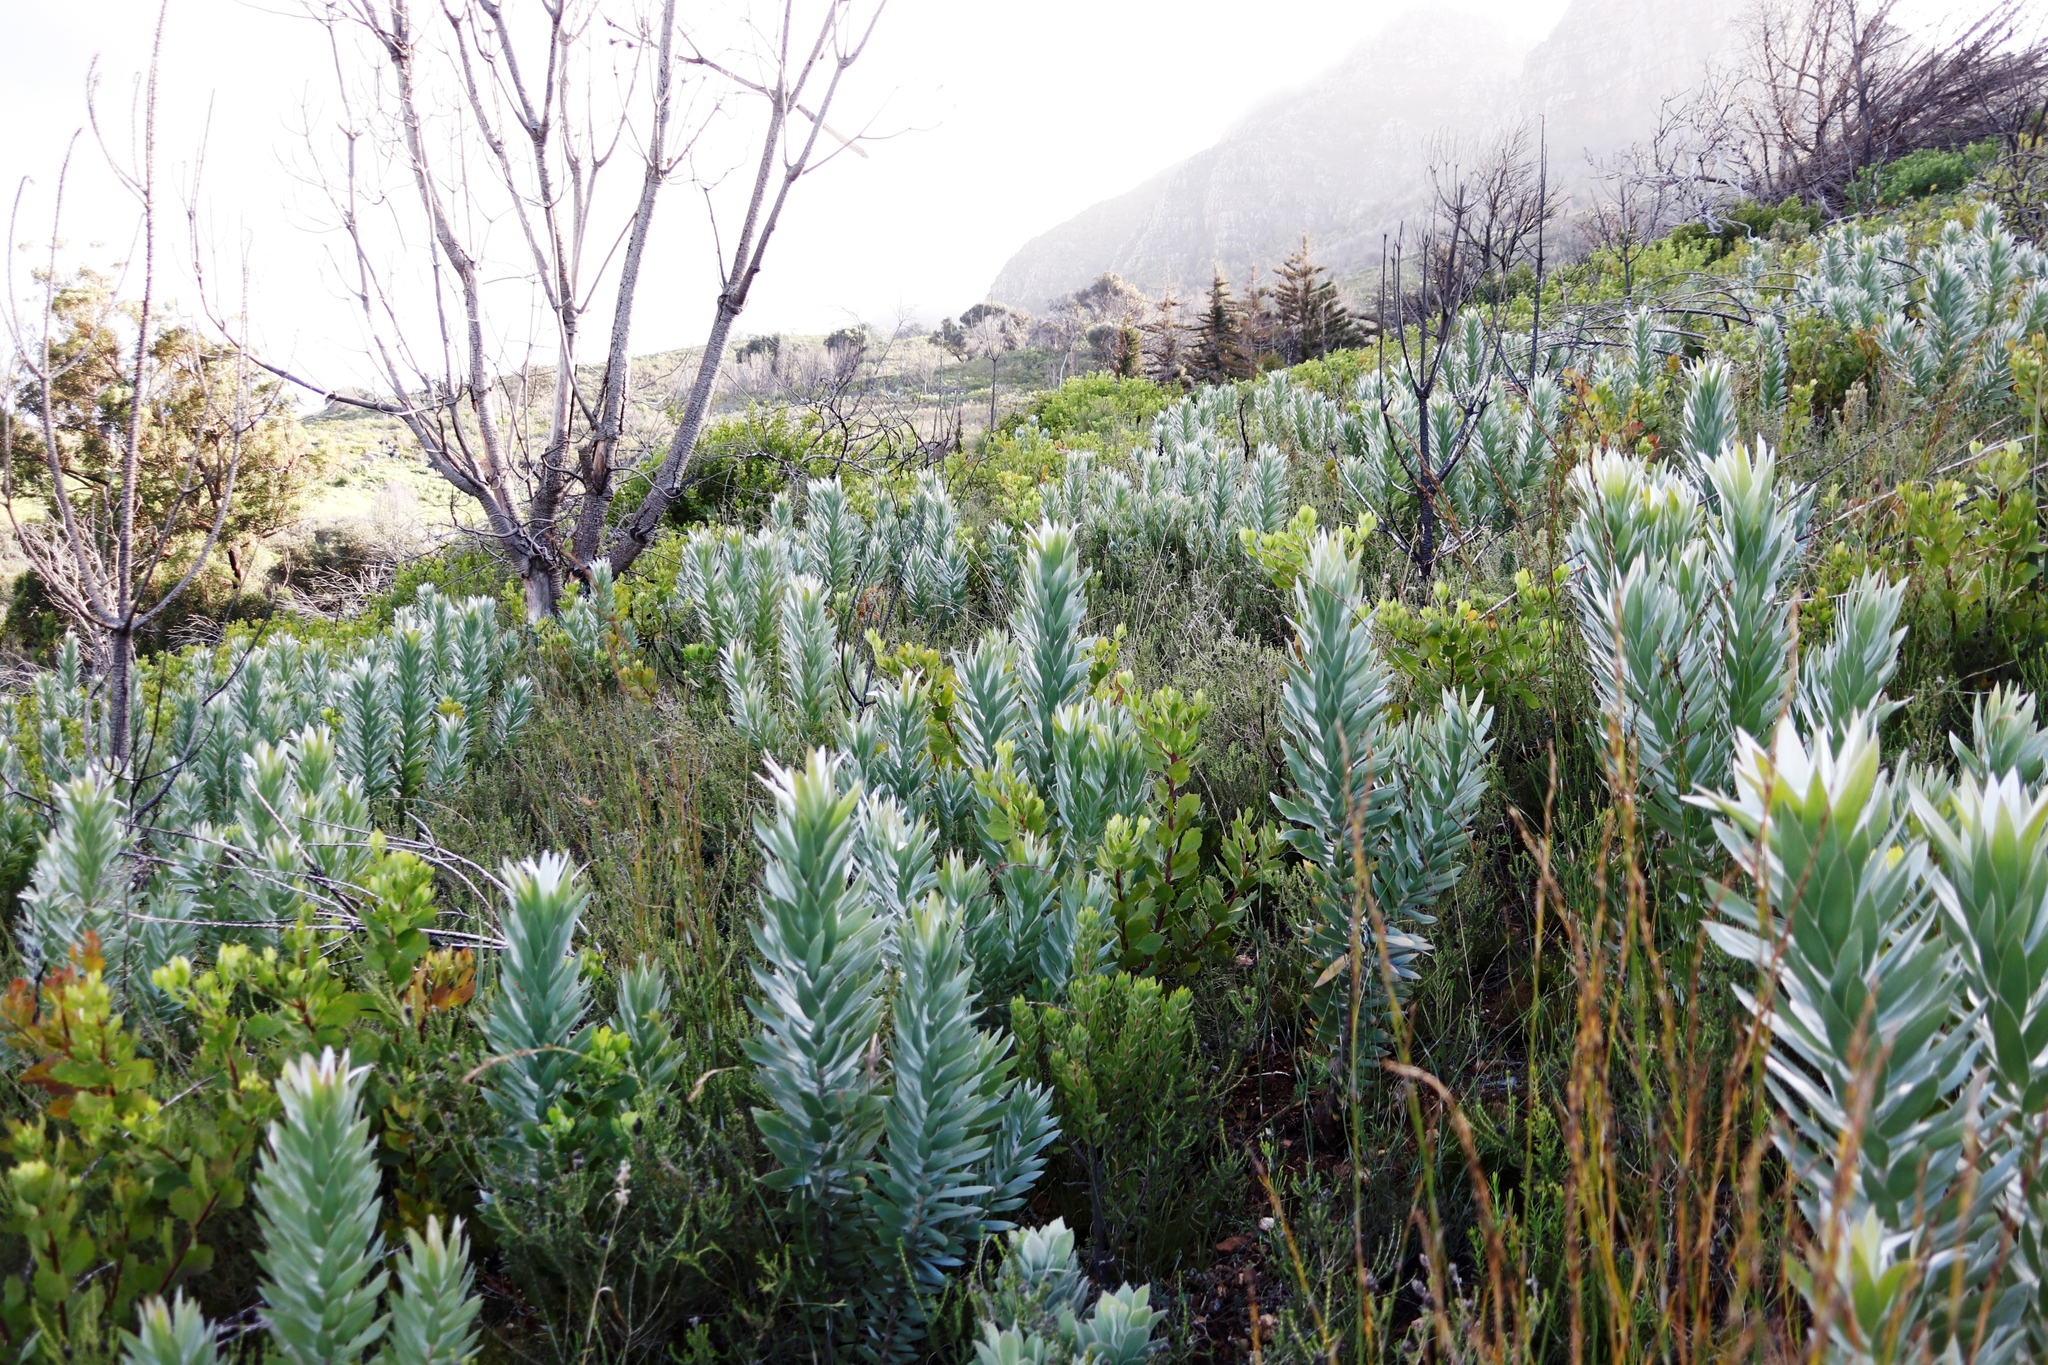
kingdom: Plantae
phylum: Tracheophyta
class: Magnoliopsida
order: Proteales
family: Proteaceae
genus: Leucadendron
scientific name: Leucadendron argenteum
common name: Cape silver tree
